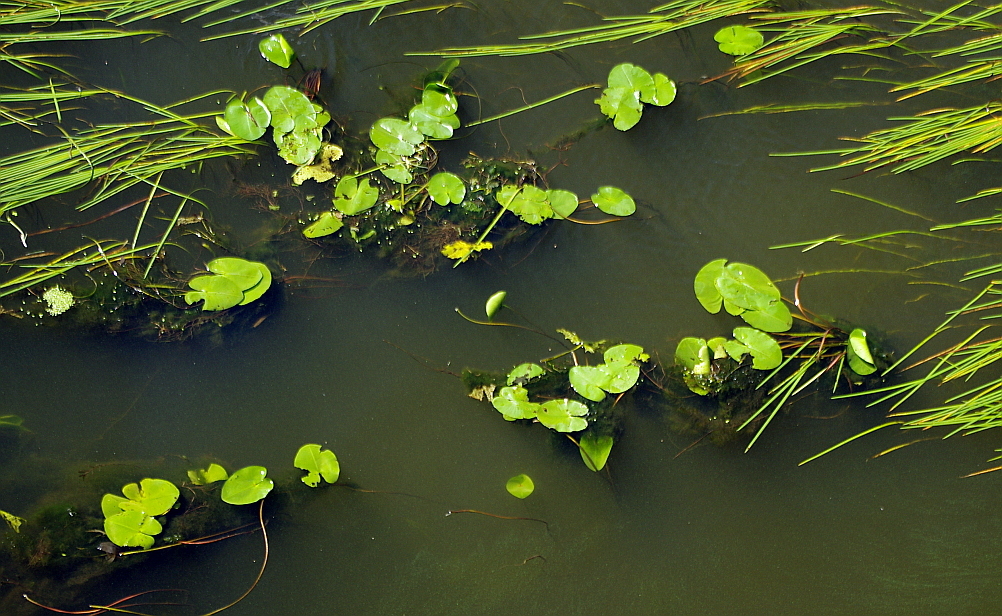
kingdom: Plantae
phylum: Tracheophyta
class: Magnoliopsida
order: Nymphaeales
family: Nymphaeaceae
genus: Nuphar
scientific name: Nuphar lutea
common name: Yellow water-lily
